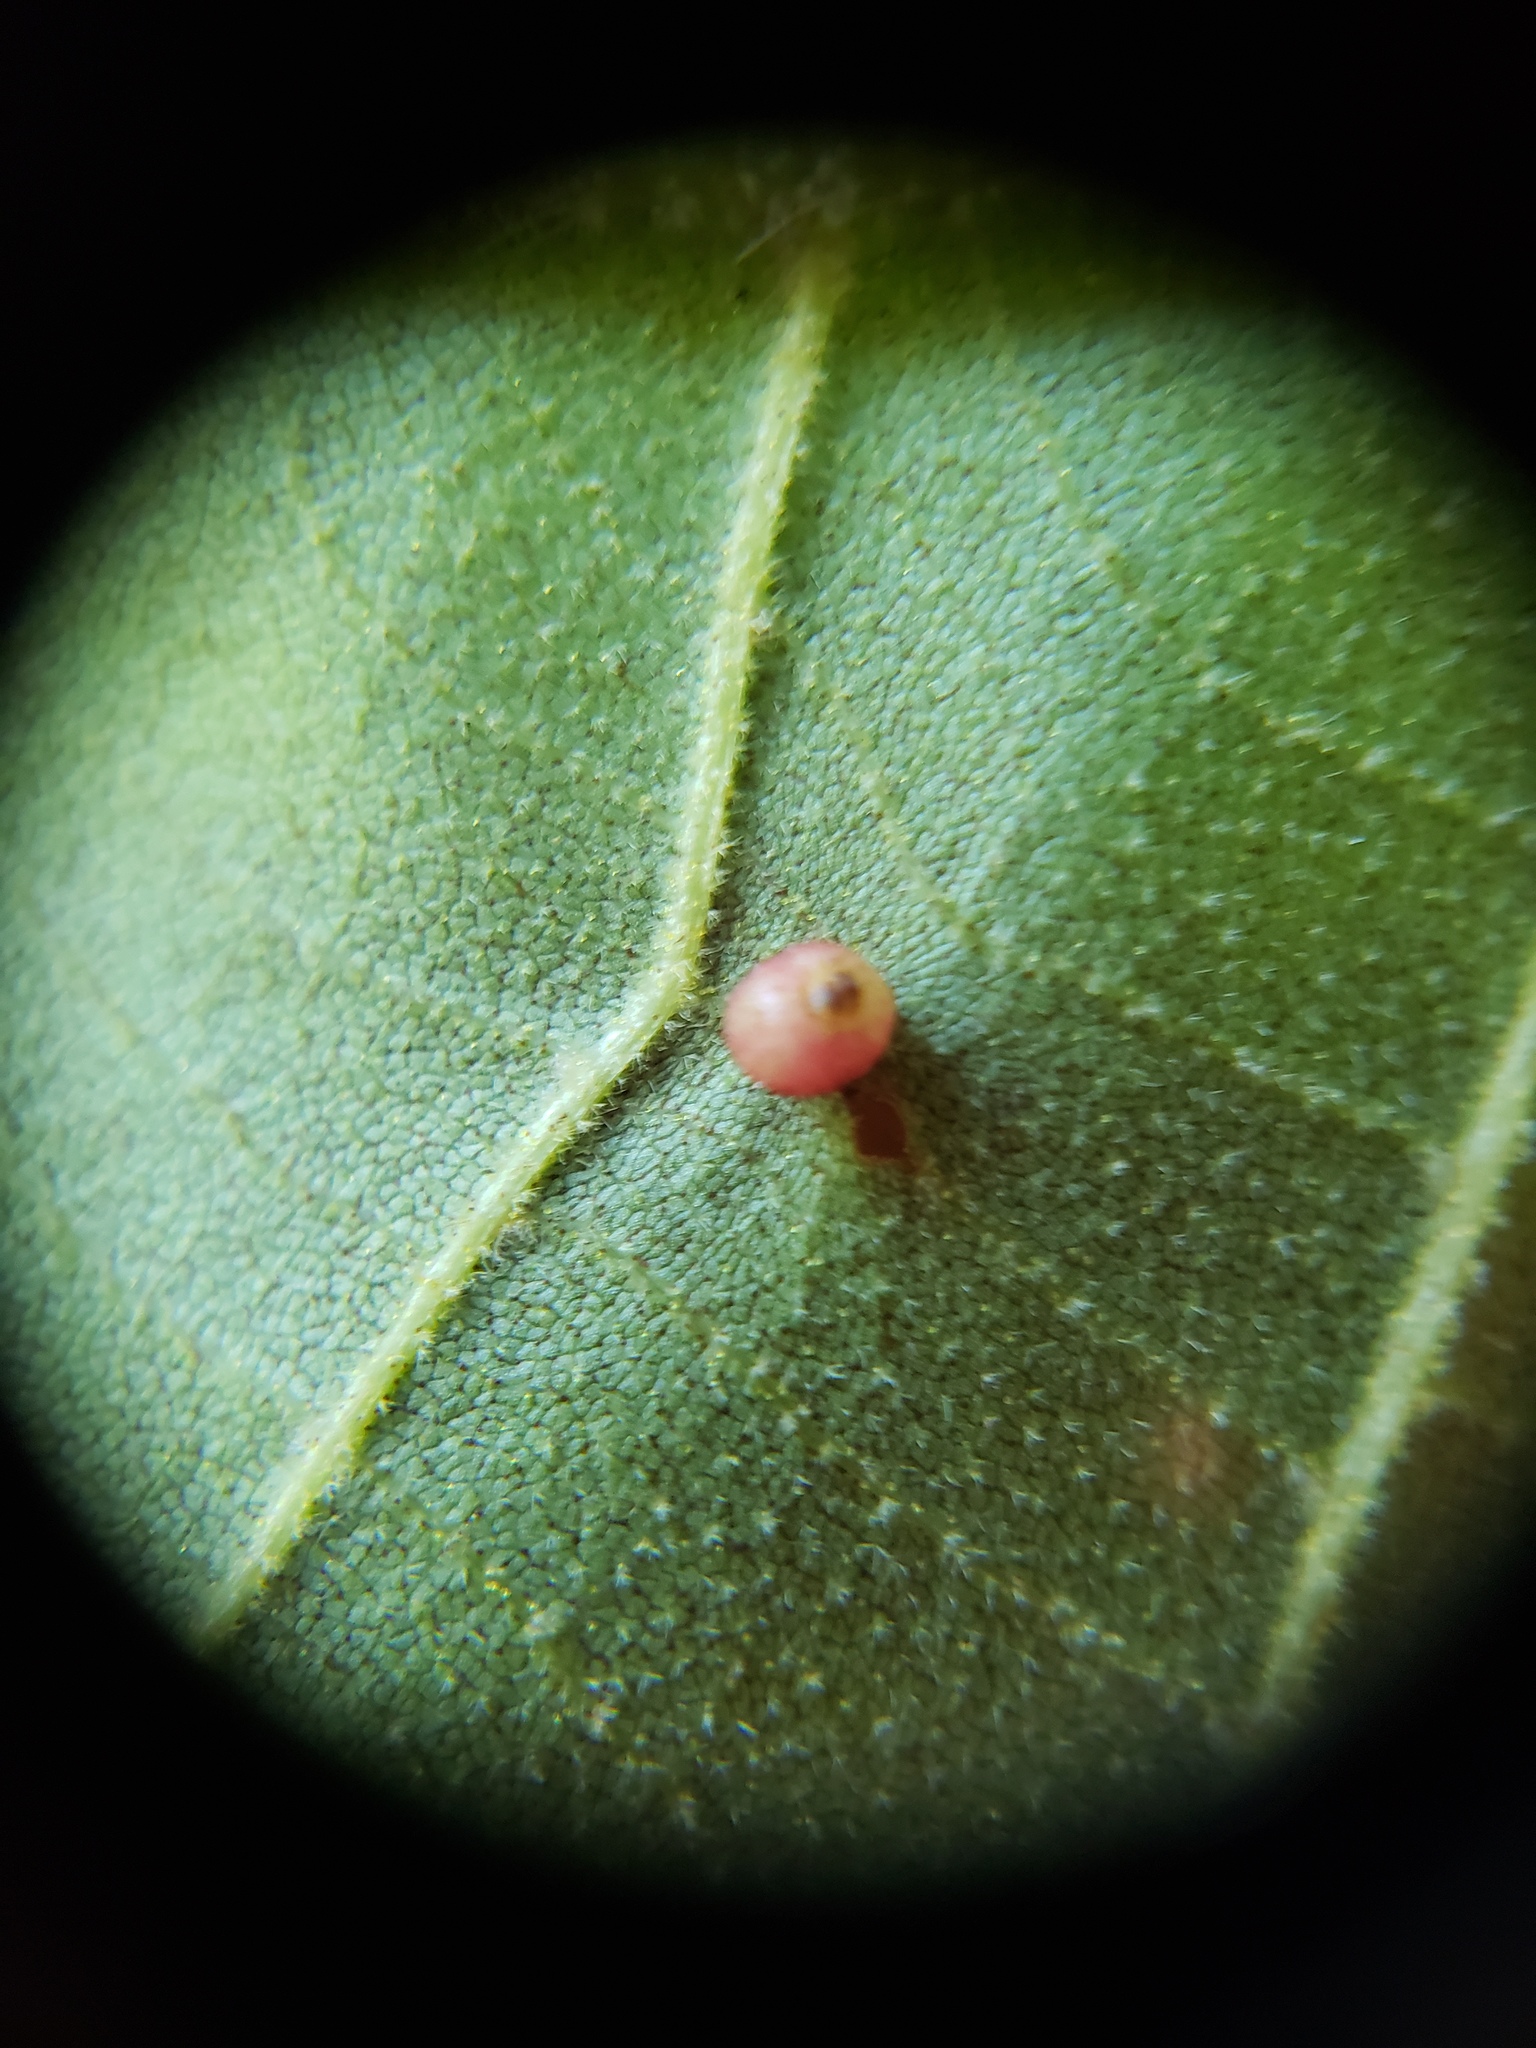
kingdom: Animalia
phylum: Arthropoda
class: Insecta
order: Diptera
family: Cecidomyiidae
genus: Caryomyia
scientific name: Caryomyia caryae
